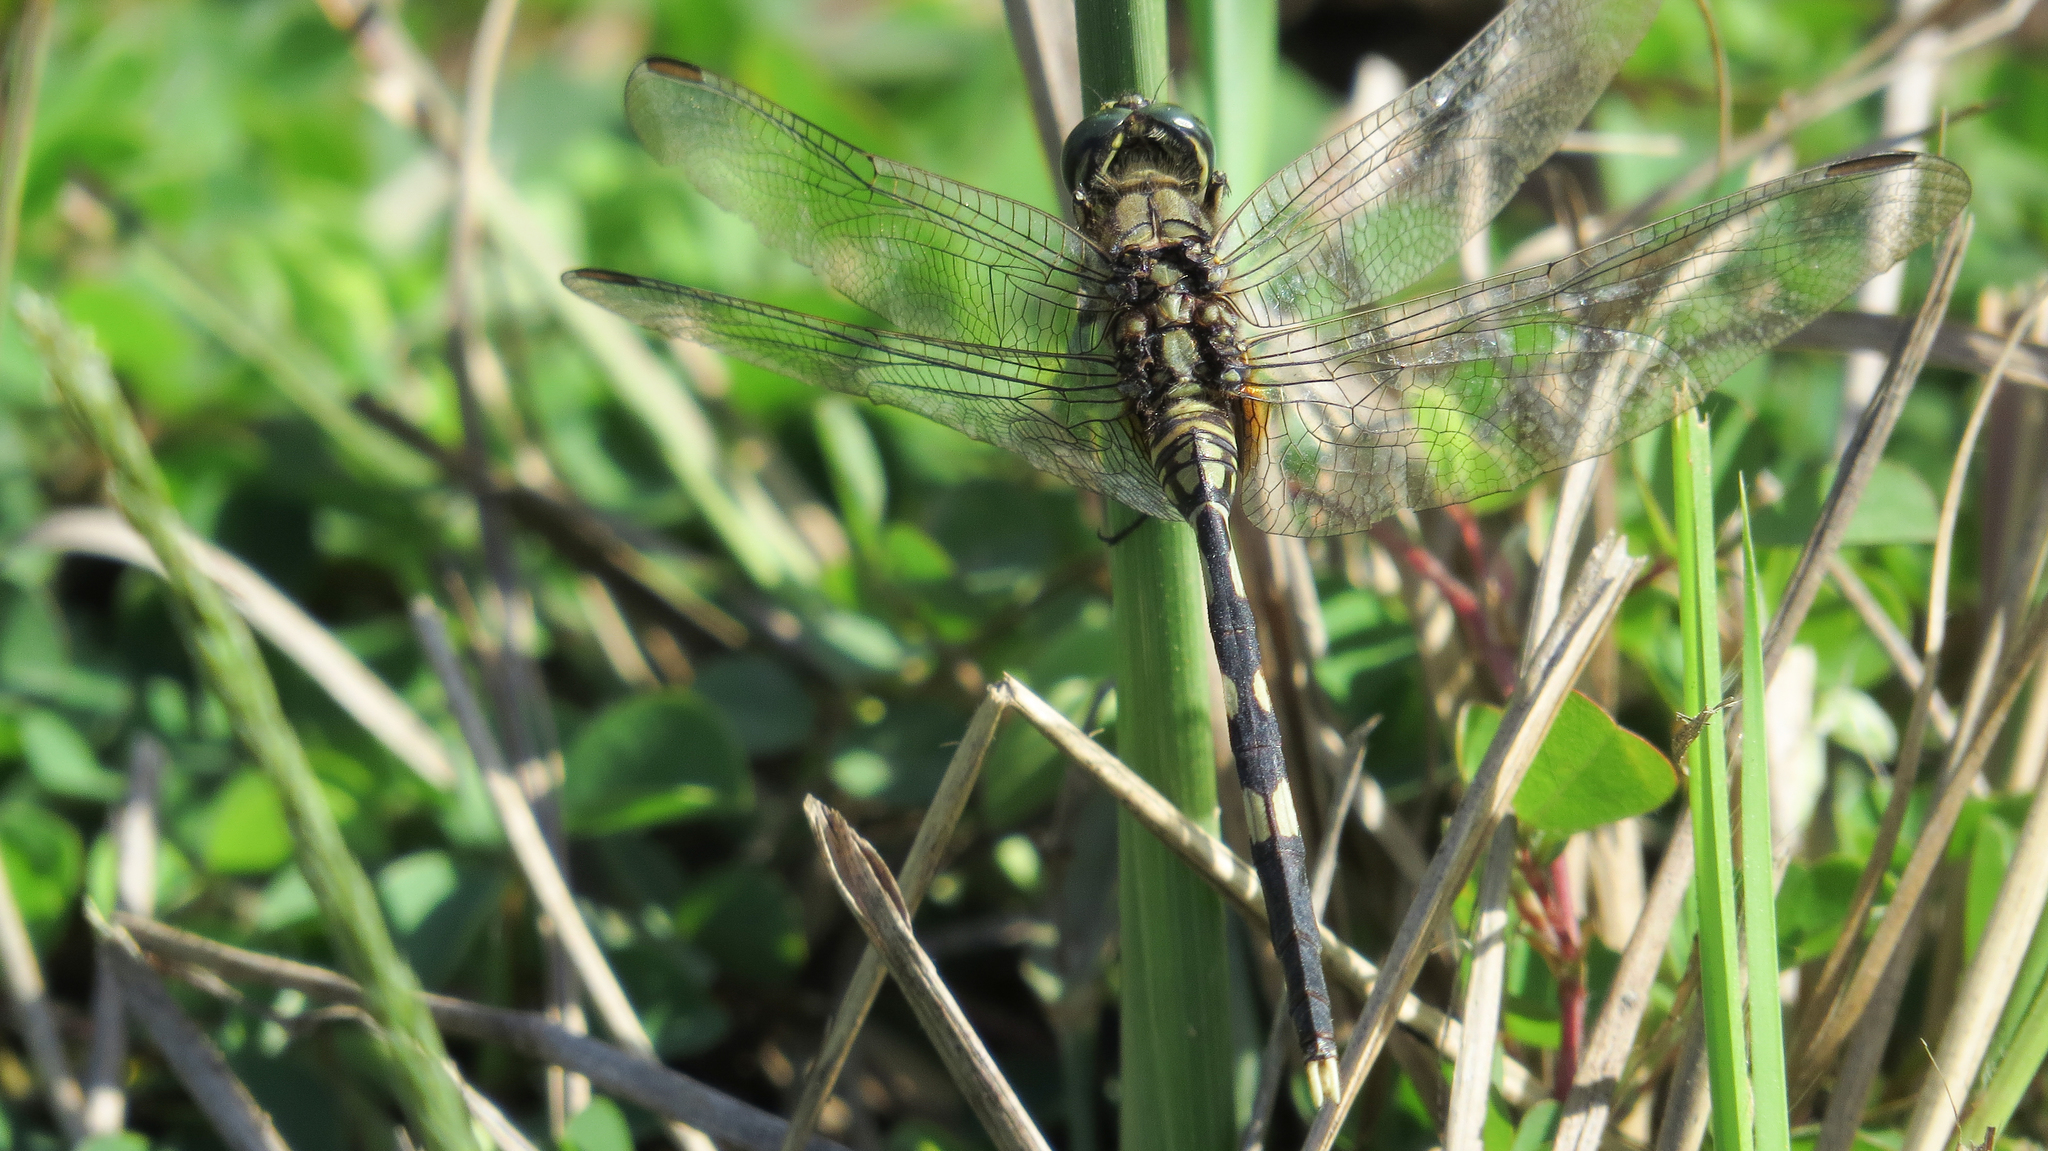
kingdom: Animalia
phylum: Arthropoda
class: Insecta
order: Odonata
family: Libellulidae
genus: Orthetrum
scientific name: Orthetrum sabina
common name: Slender skimmer
